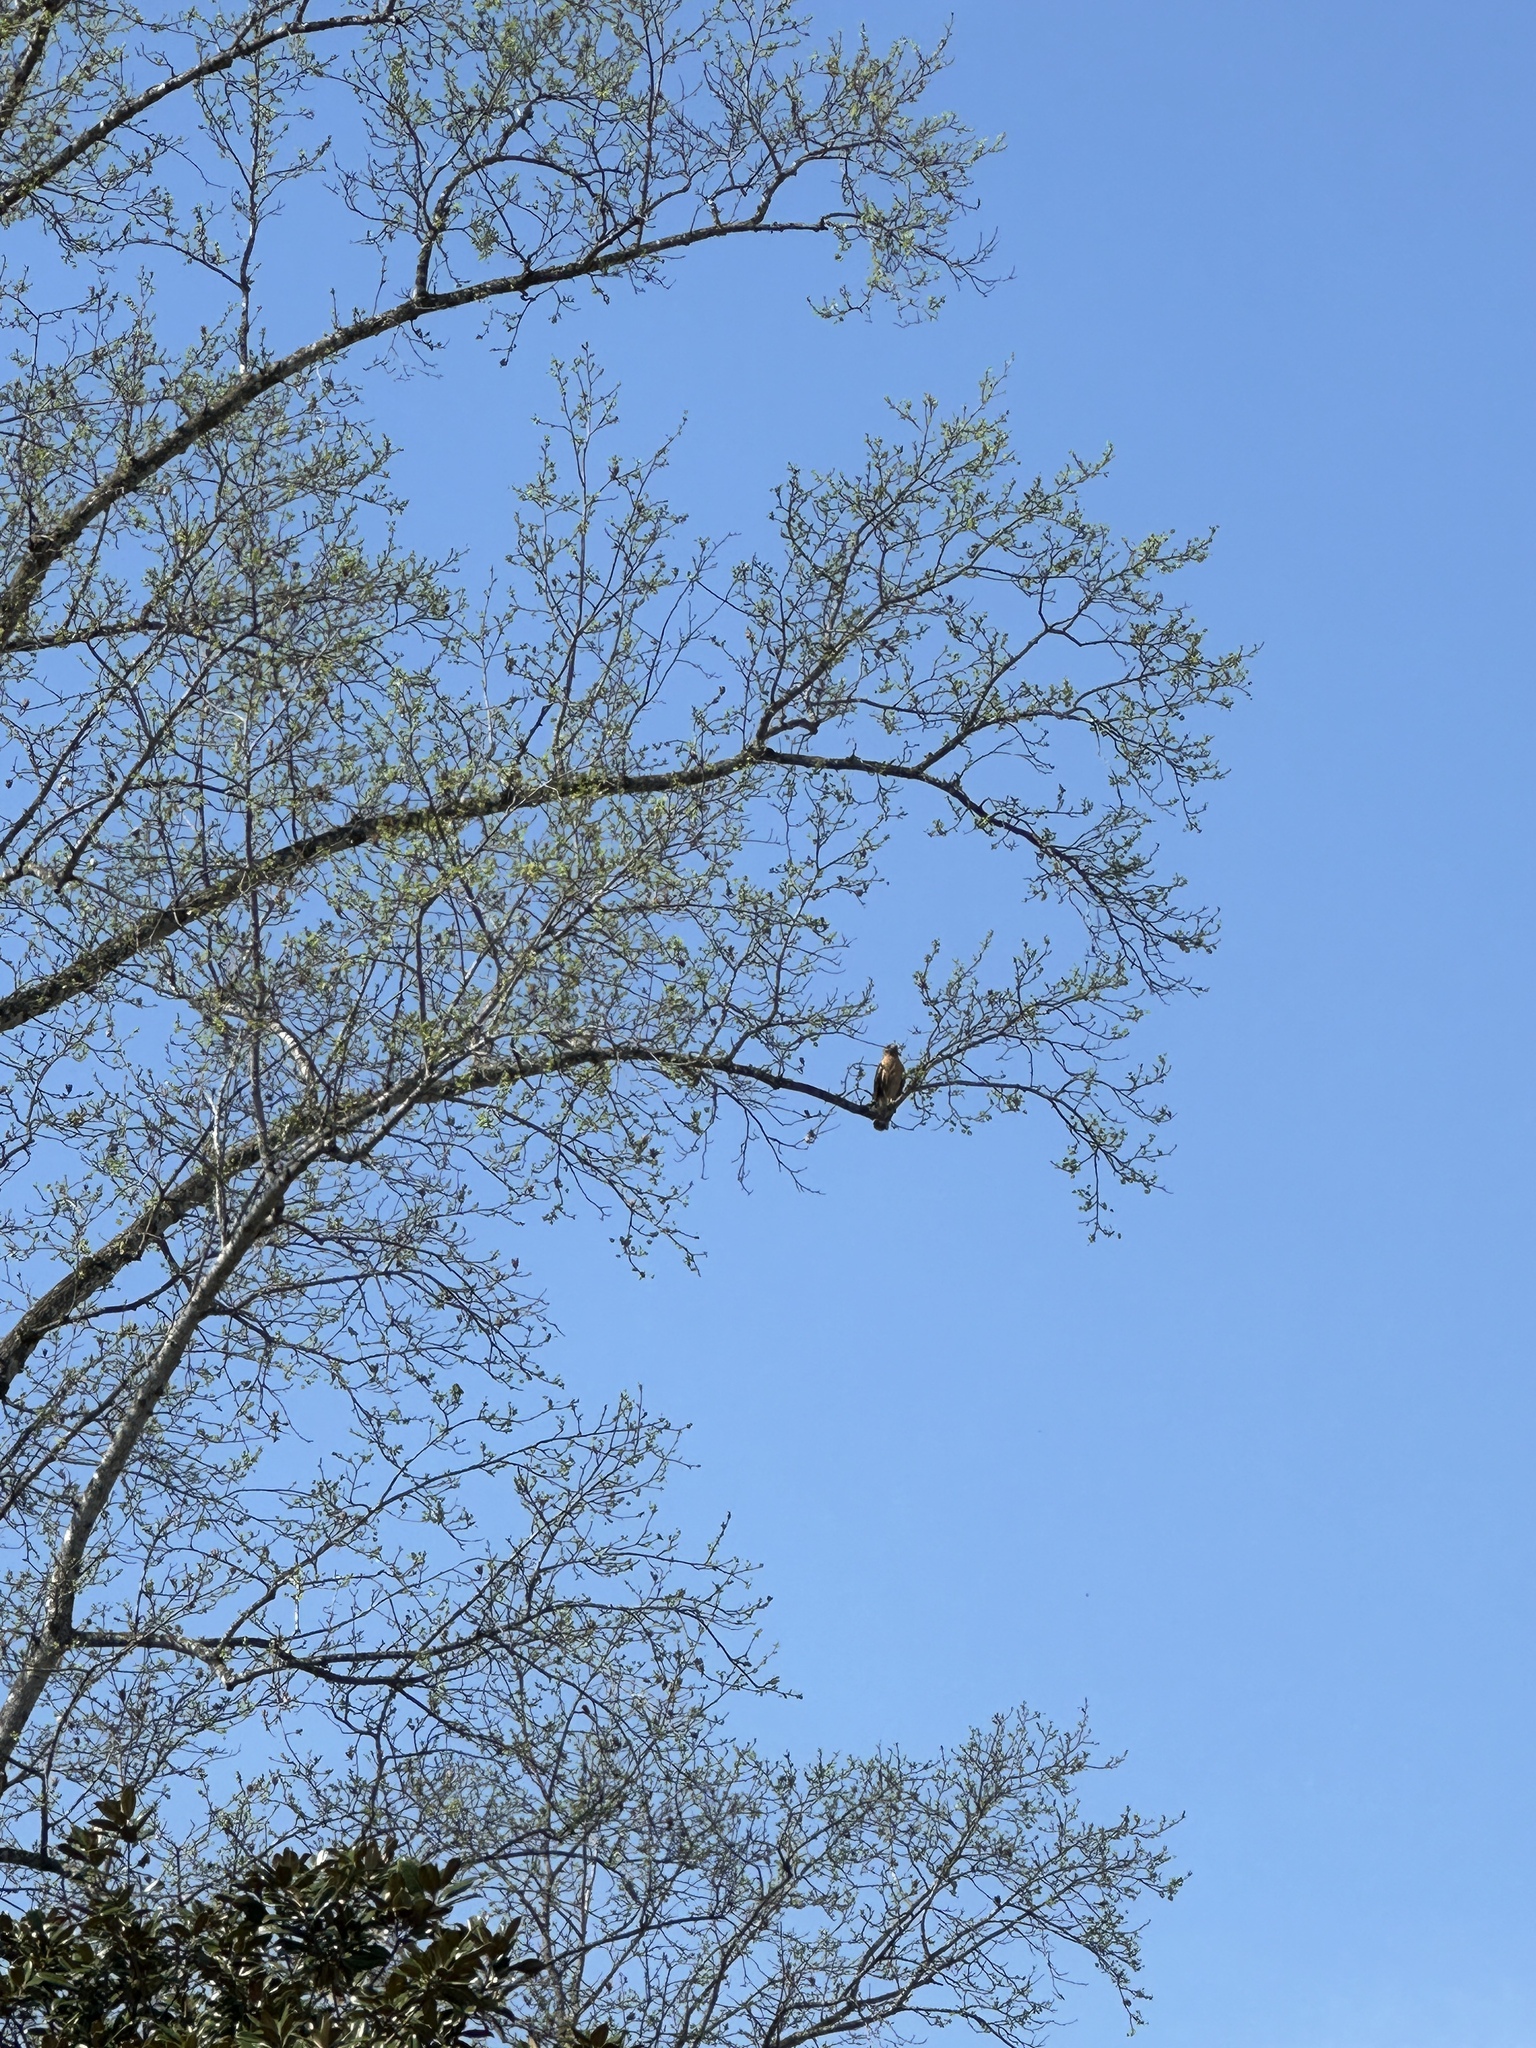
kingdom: Animalia
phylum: Chordata
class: Aves
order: Accipitriformes
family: Accipitridae
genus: Buteo
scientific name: Buteo lineatus
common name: Red-shouldered hawk
